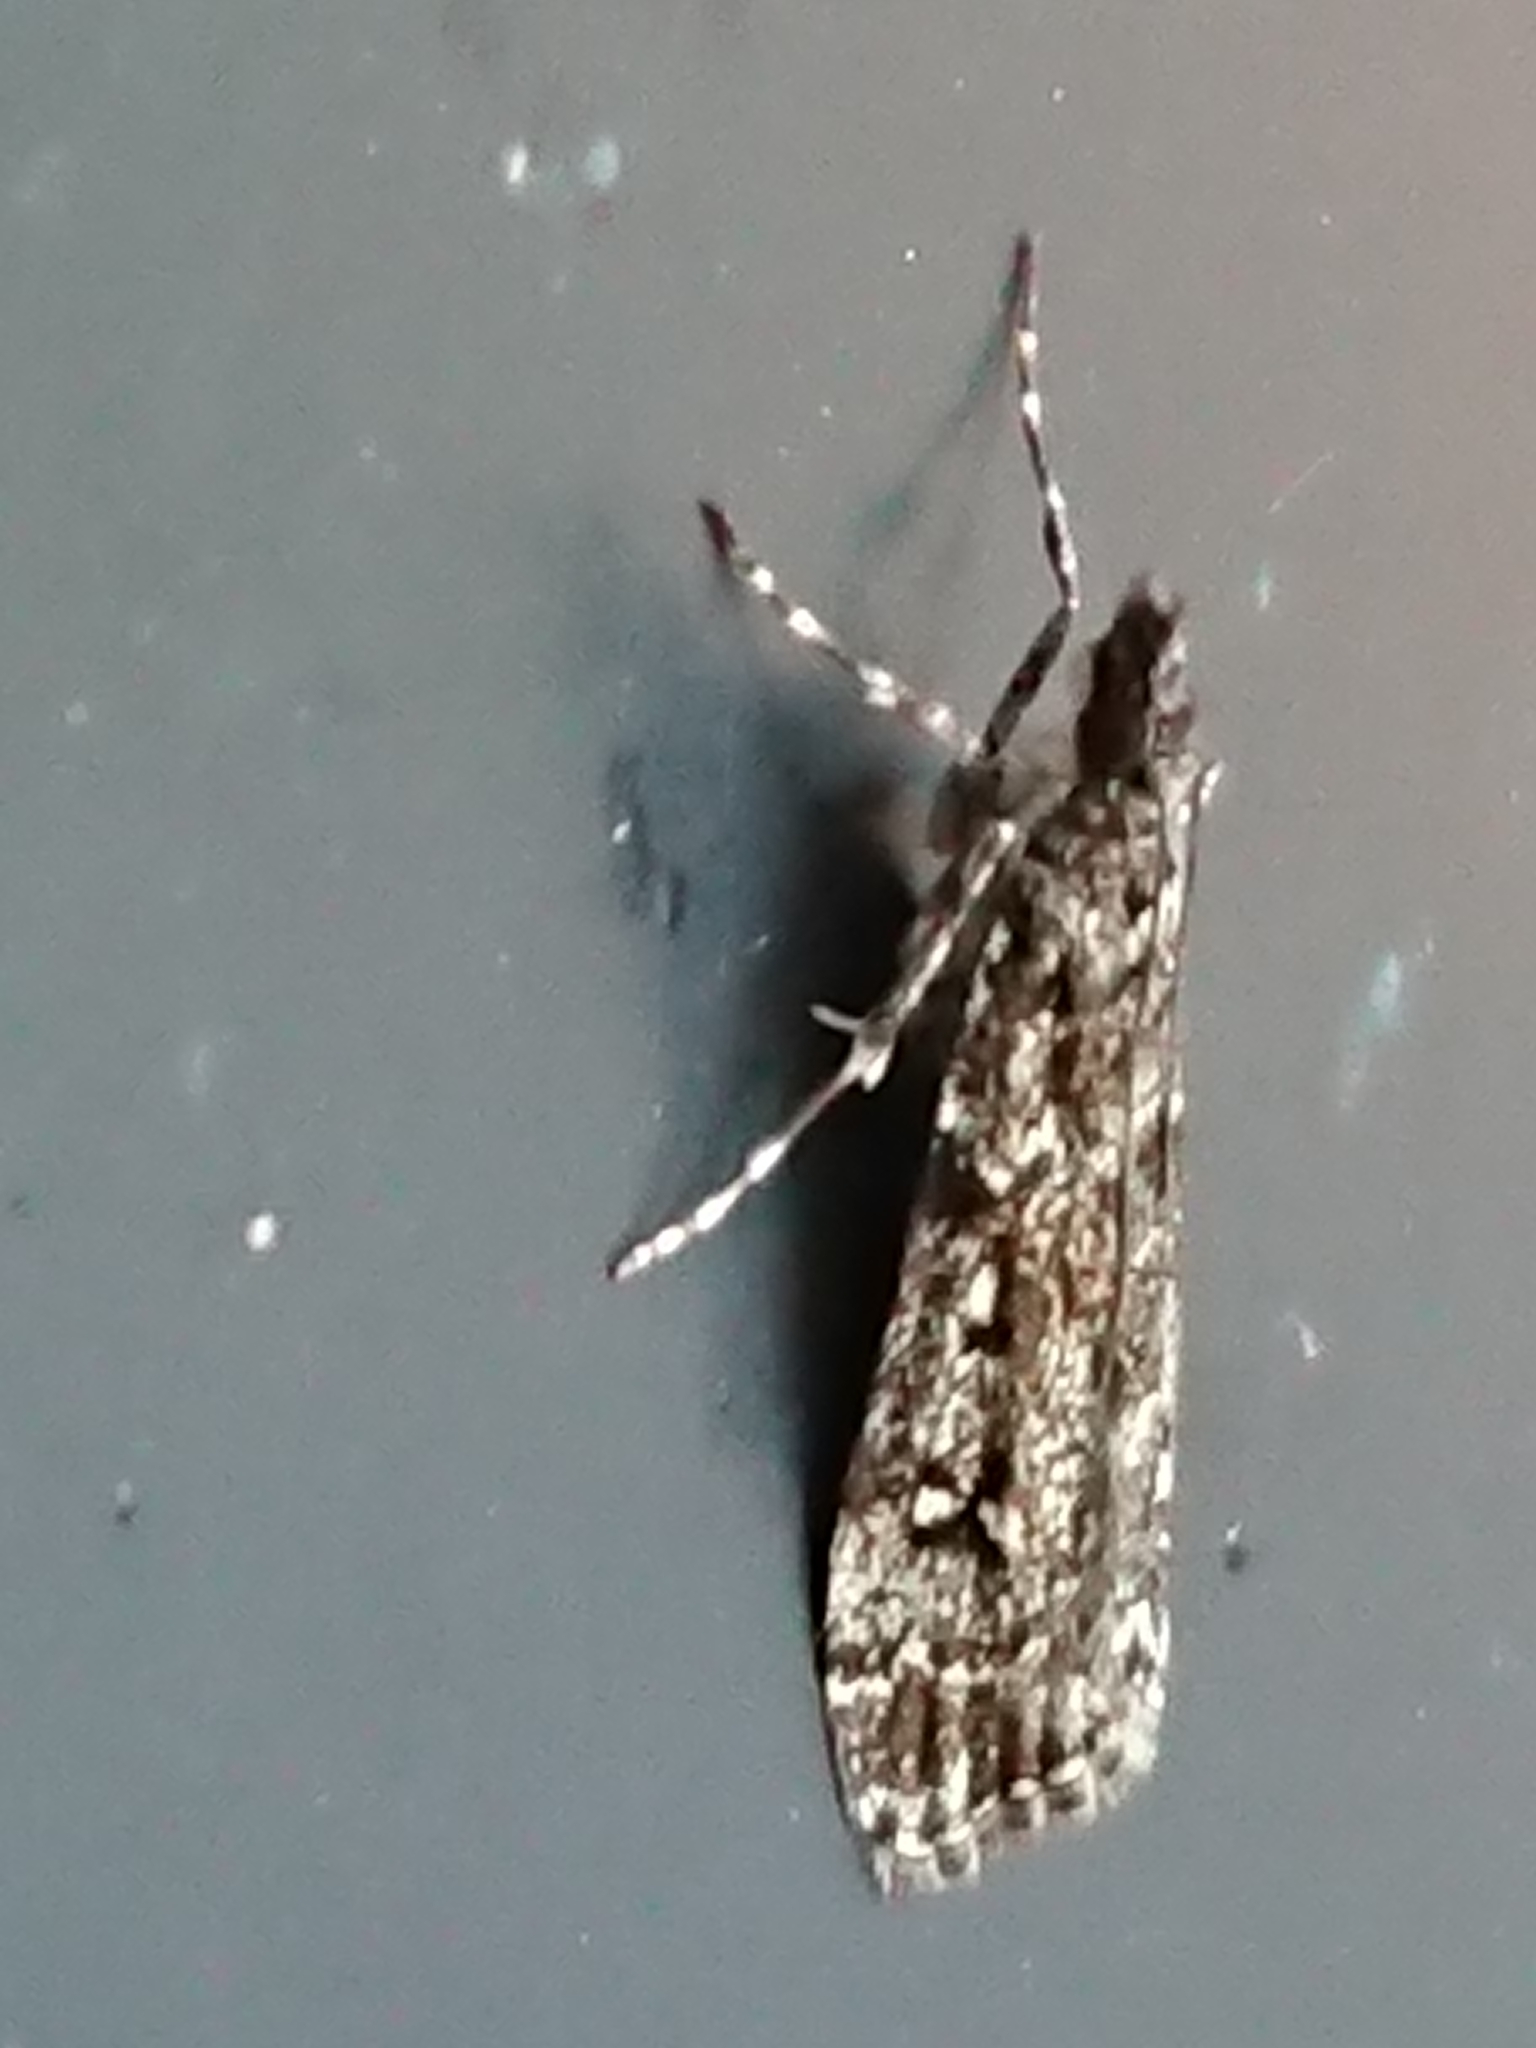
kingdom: Animalia
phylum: Arthropoda
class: Insecta
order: Lepidoptera
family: Crambidae
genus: Eudonia
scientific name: Eudonia philerga
